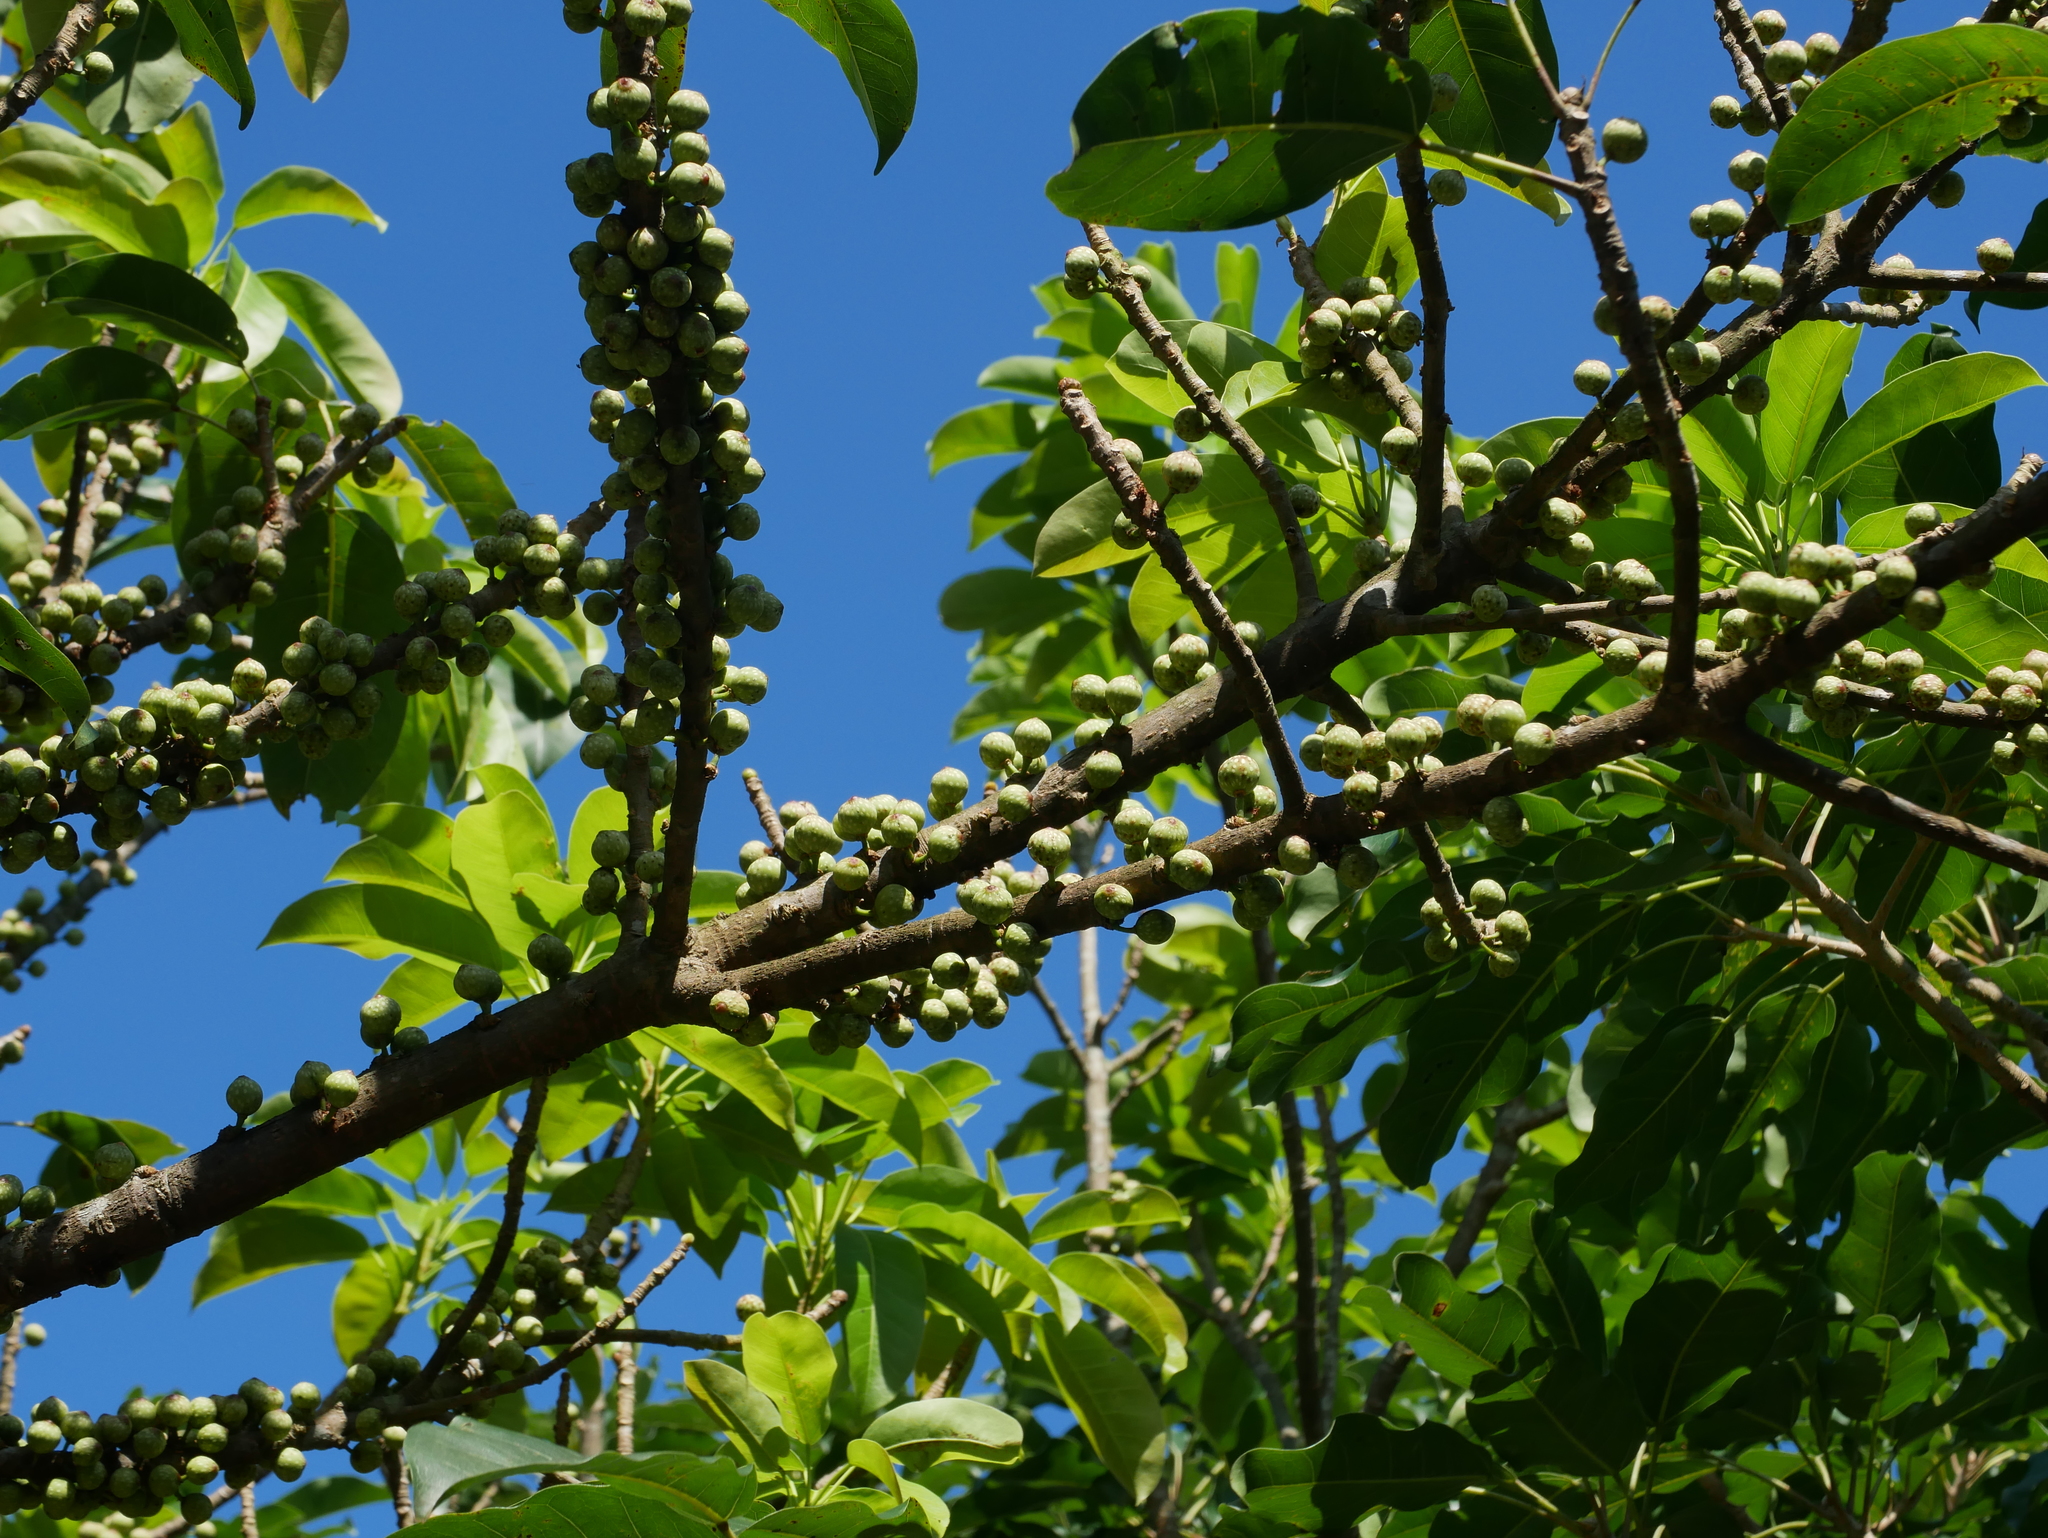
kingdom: Plantae
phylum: Tracheophyta
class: Magnoliopsida
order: Rosales
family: Moraceae
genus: Ficus
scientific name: Ficus subpisocarpa
